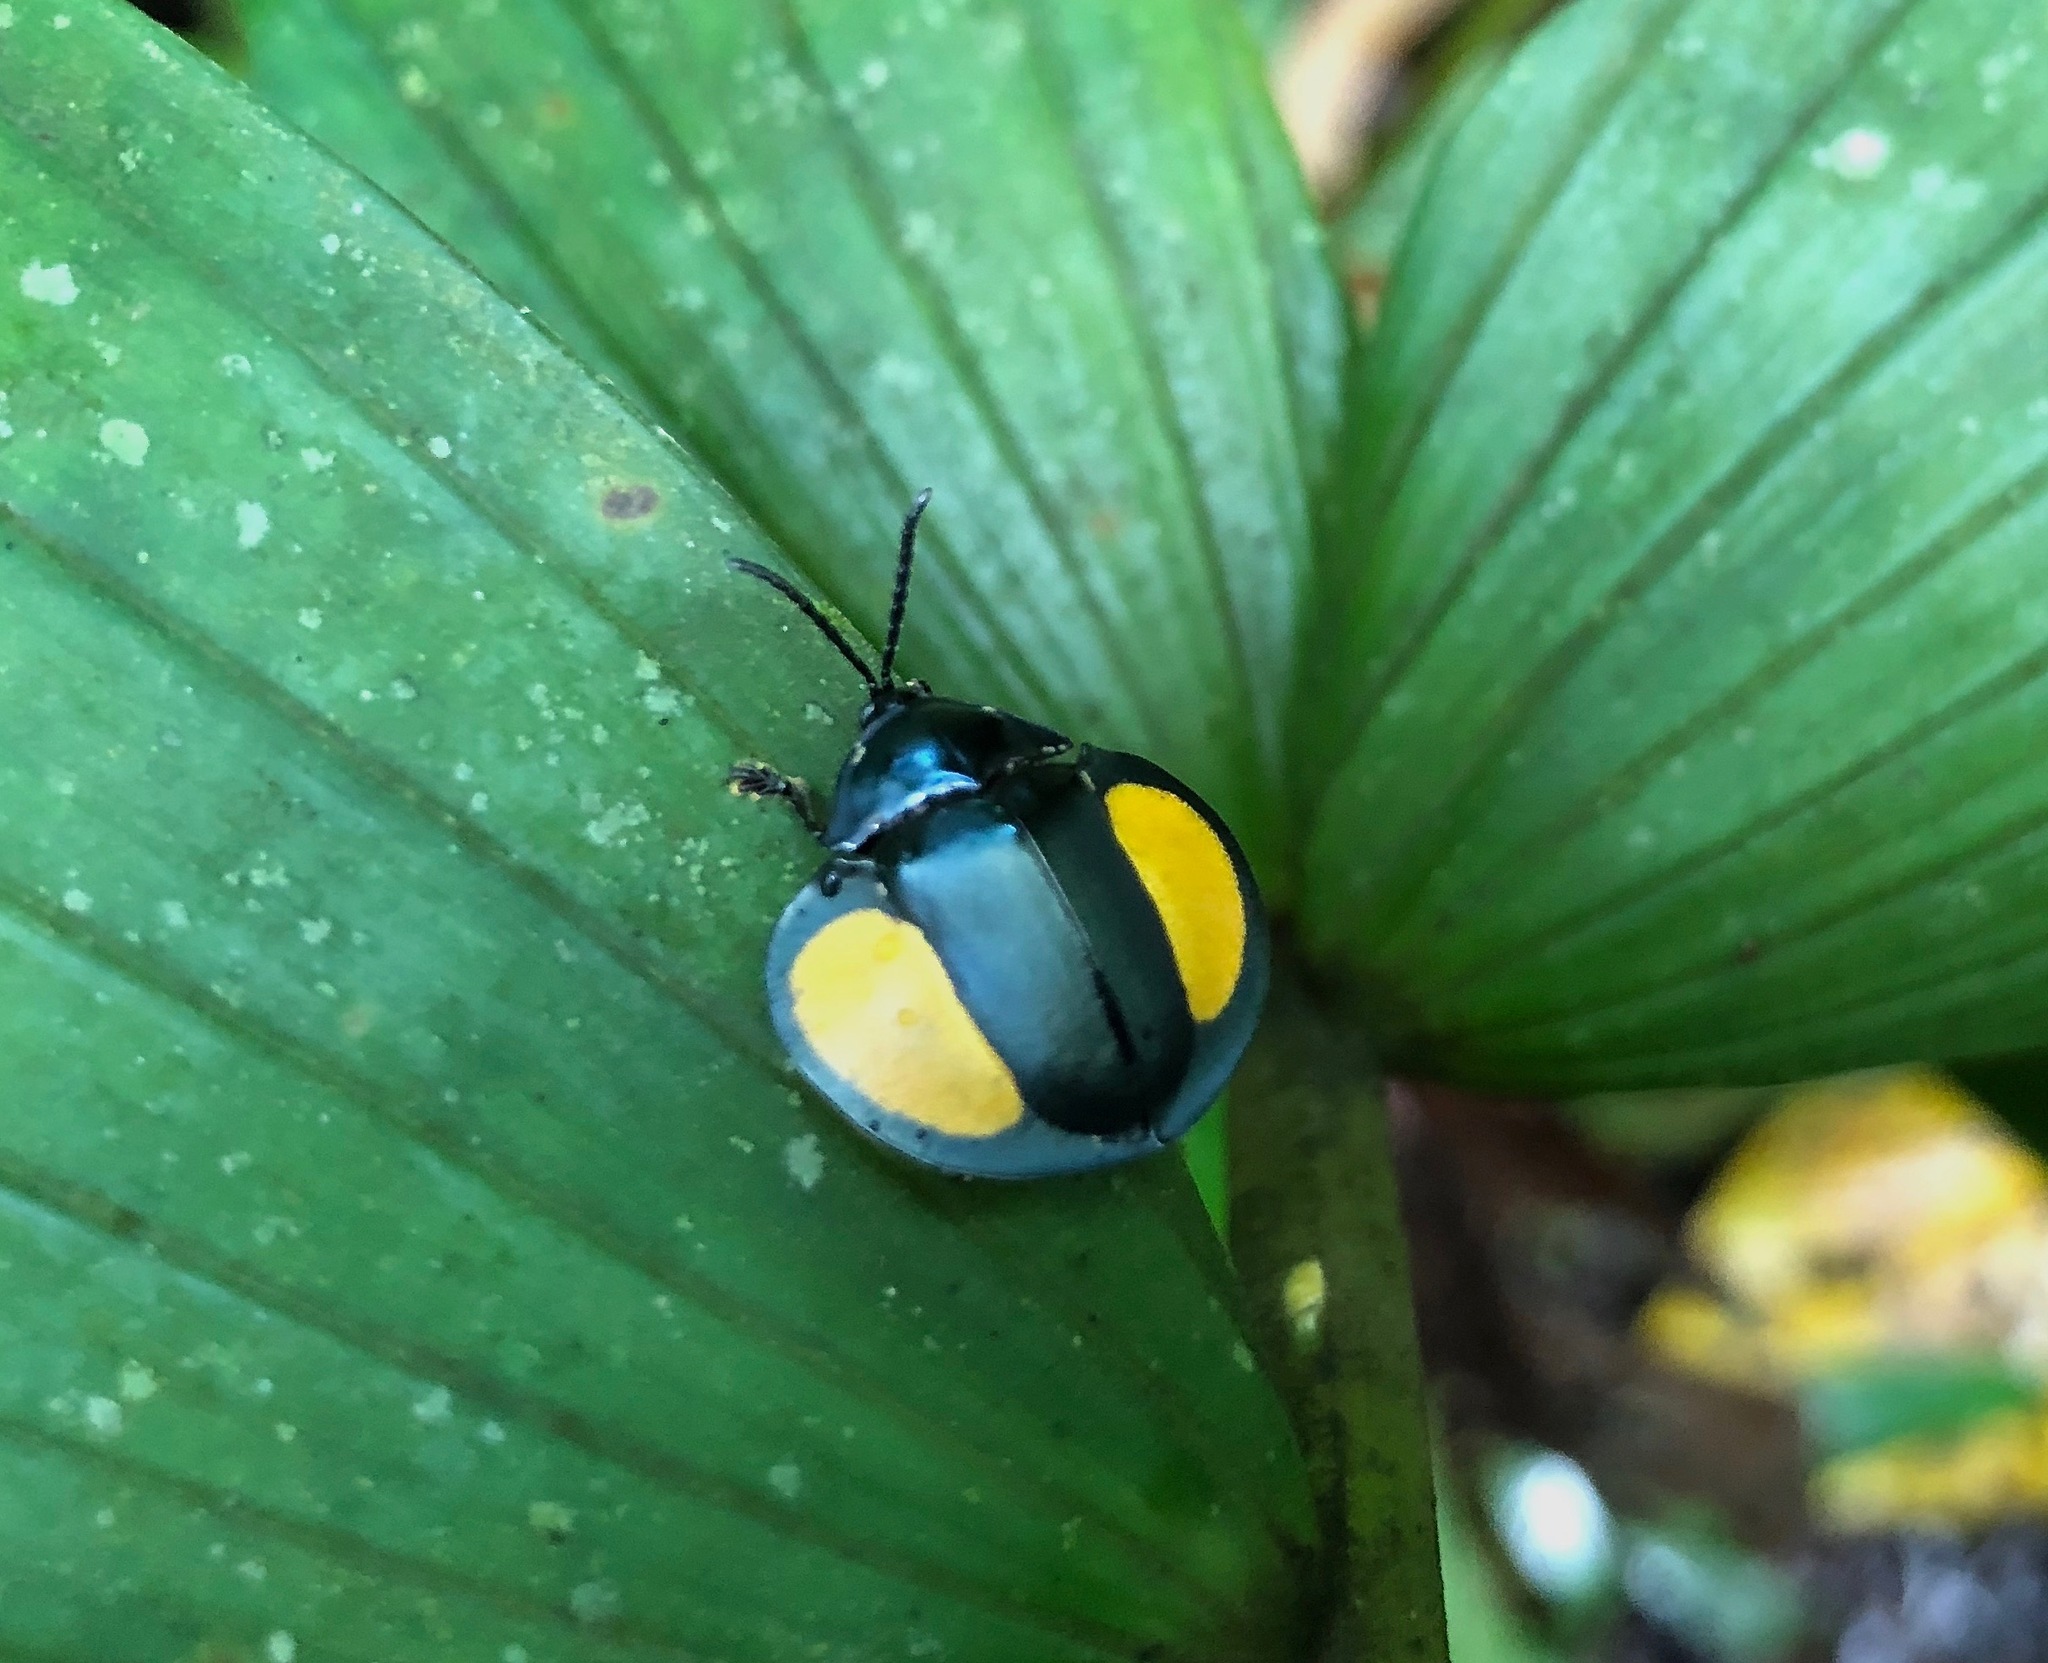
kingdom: Animalia
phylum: Arthropoda
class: Insecta
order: Coleoptera
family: Chrysomelidae
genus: Omaspides
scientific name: Omaspides specularis
